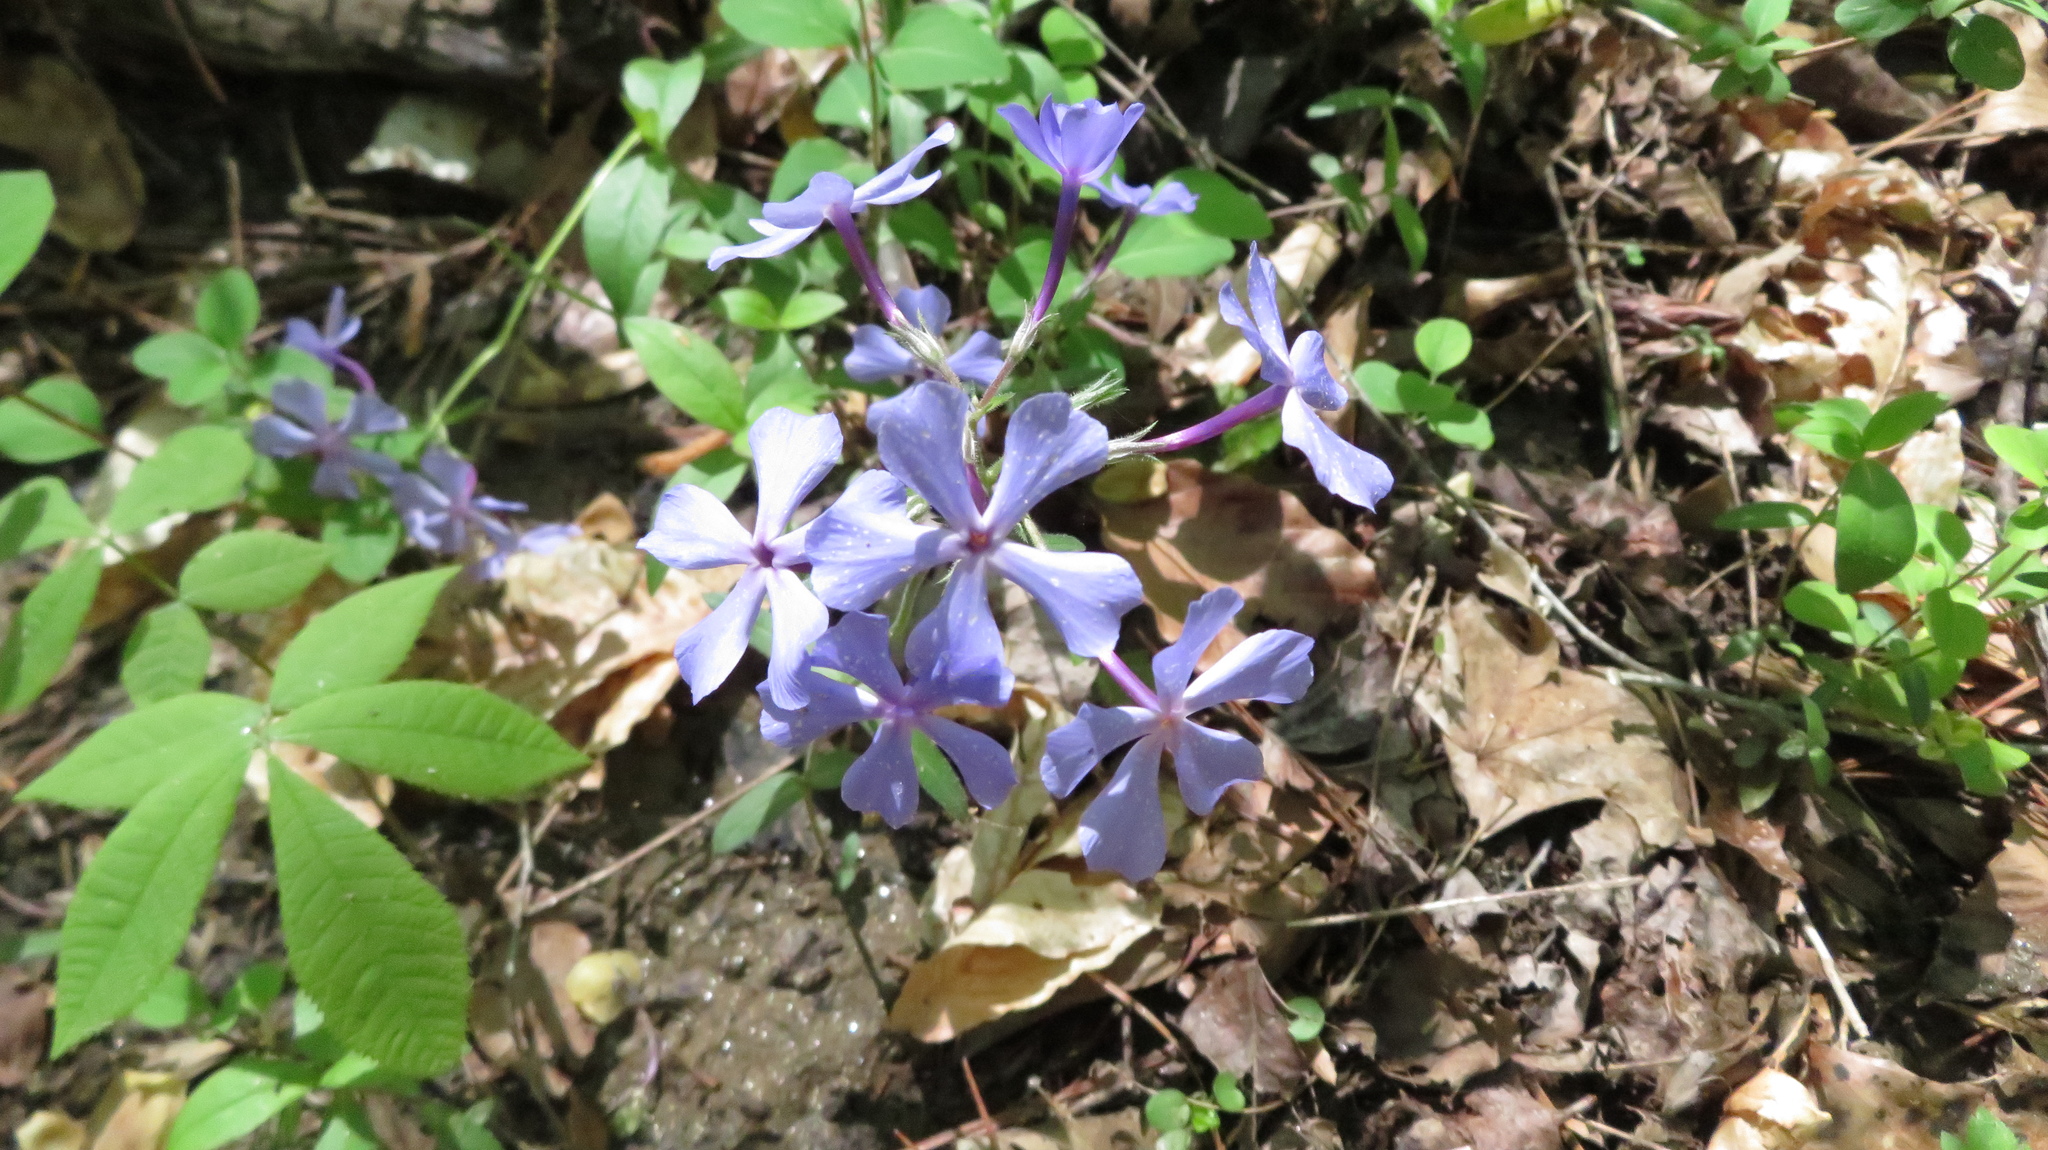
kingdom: Plantae
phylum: Tracheophyta
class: Magnoliopsida
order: Ericales
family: Polemoniaceae
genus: Phlox
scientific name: Phlox divaricata
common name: Blue phlox
